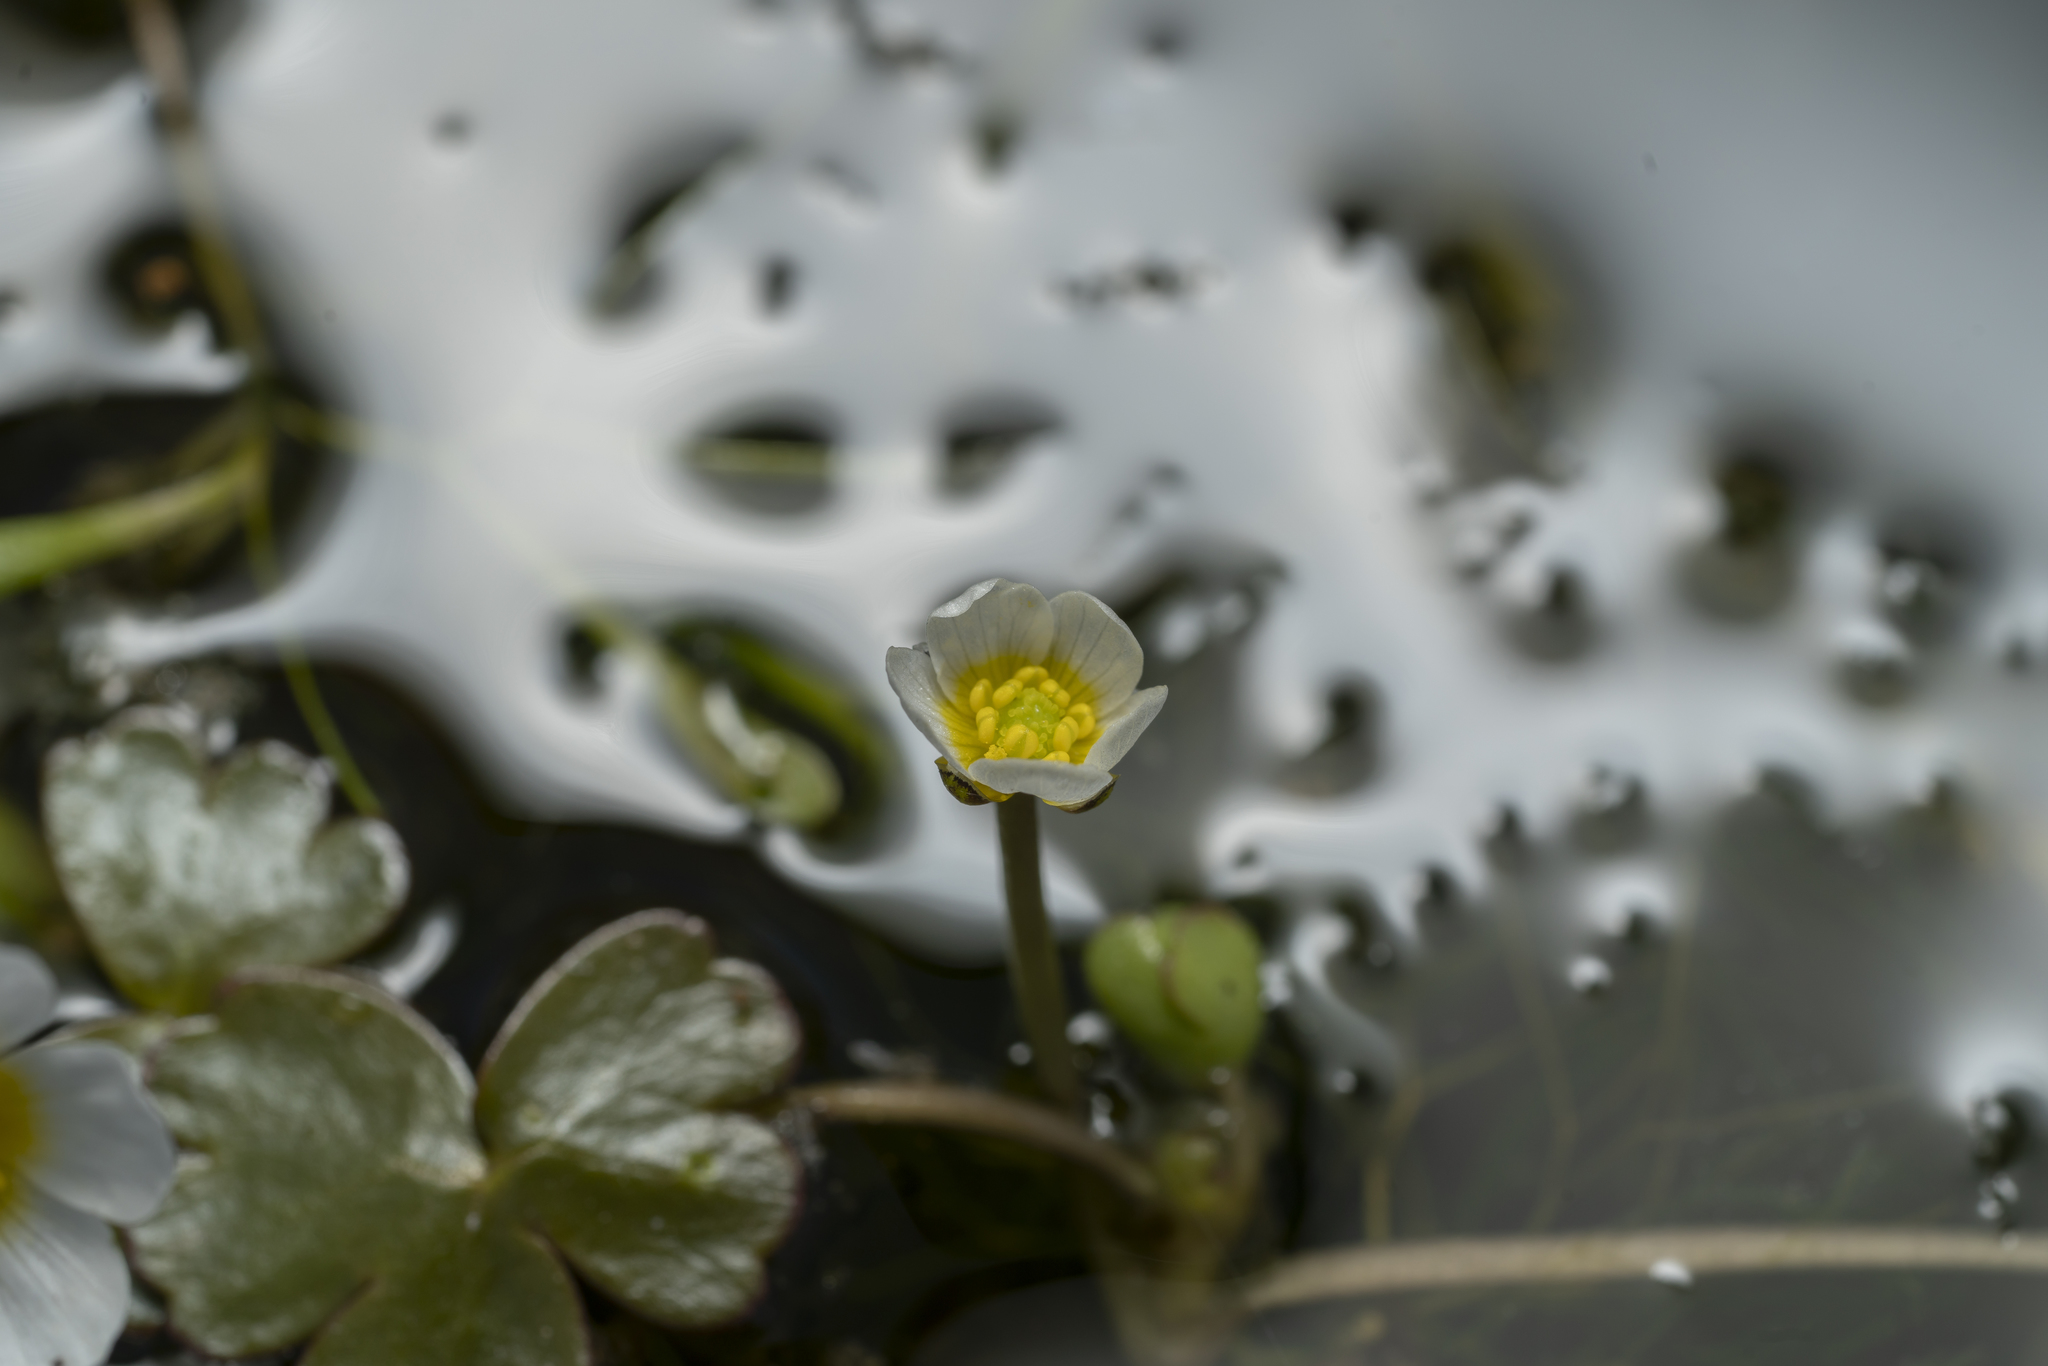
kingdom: Plantae
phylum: Tracheophyta
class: Magnoliopsida
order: Ranunculales
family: Ranunculaceae
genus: Ranunculus
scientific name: Ranunculus
